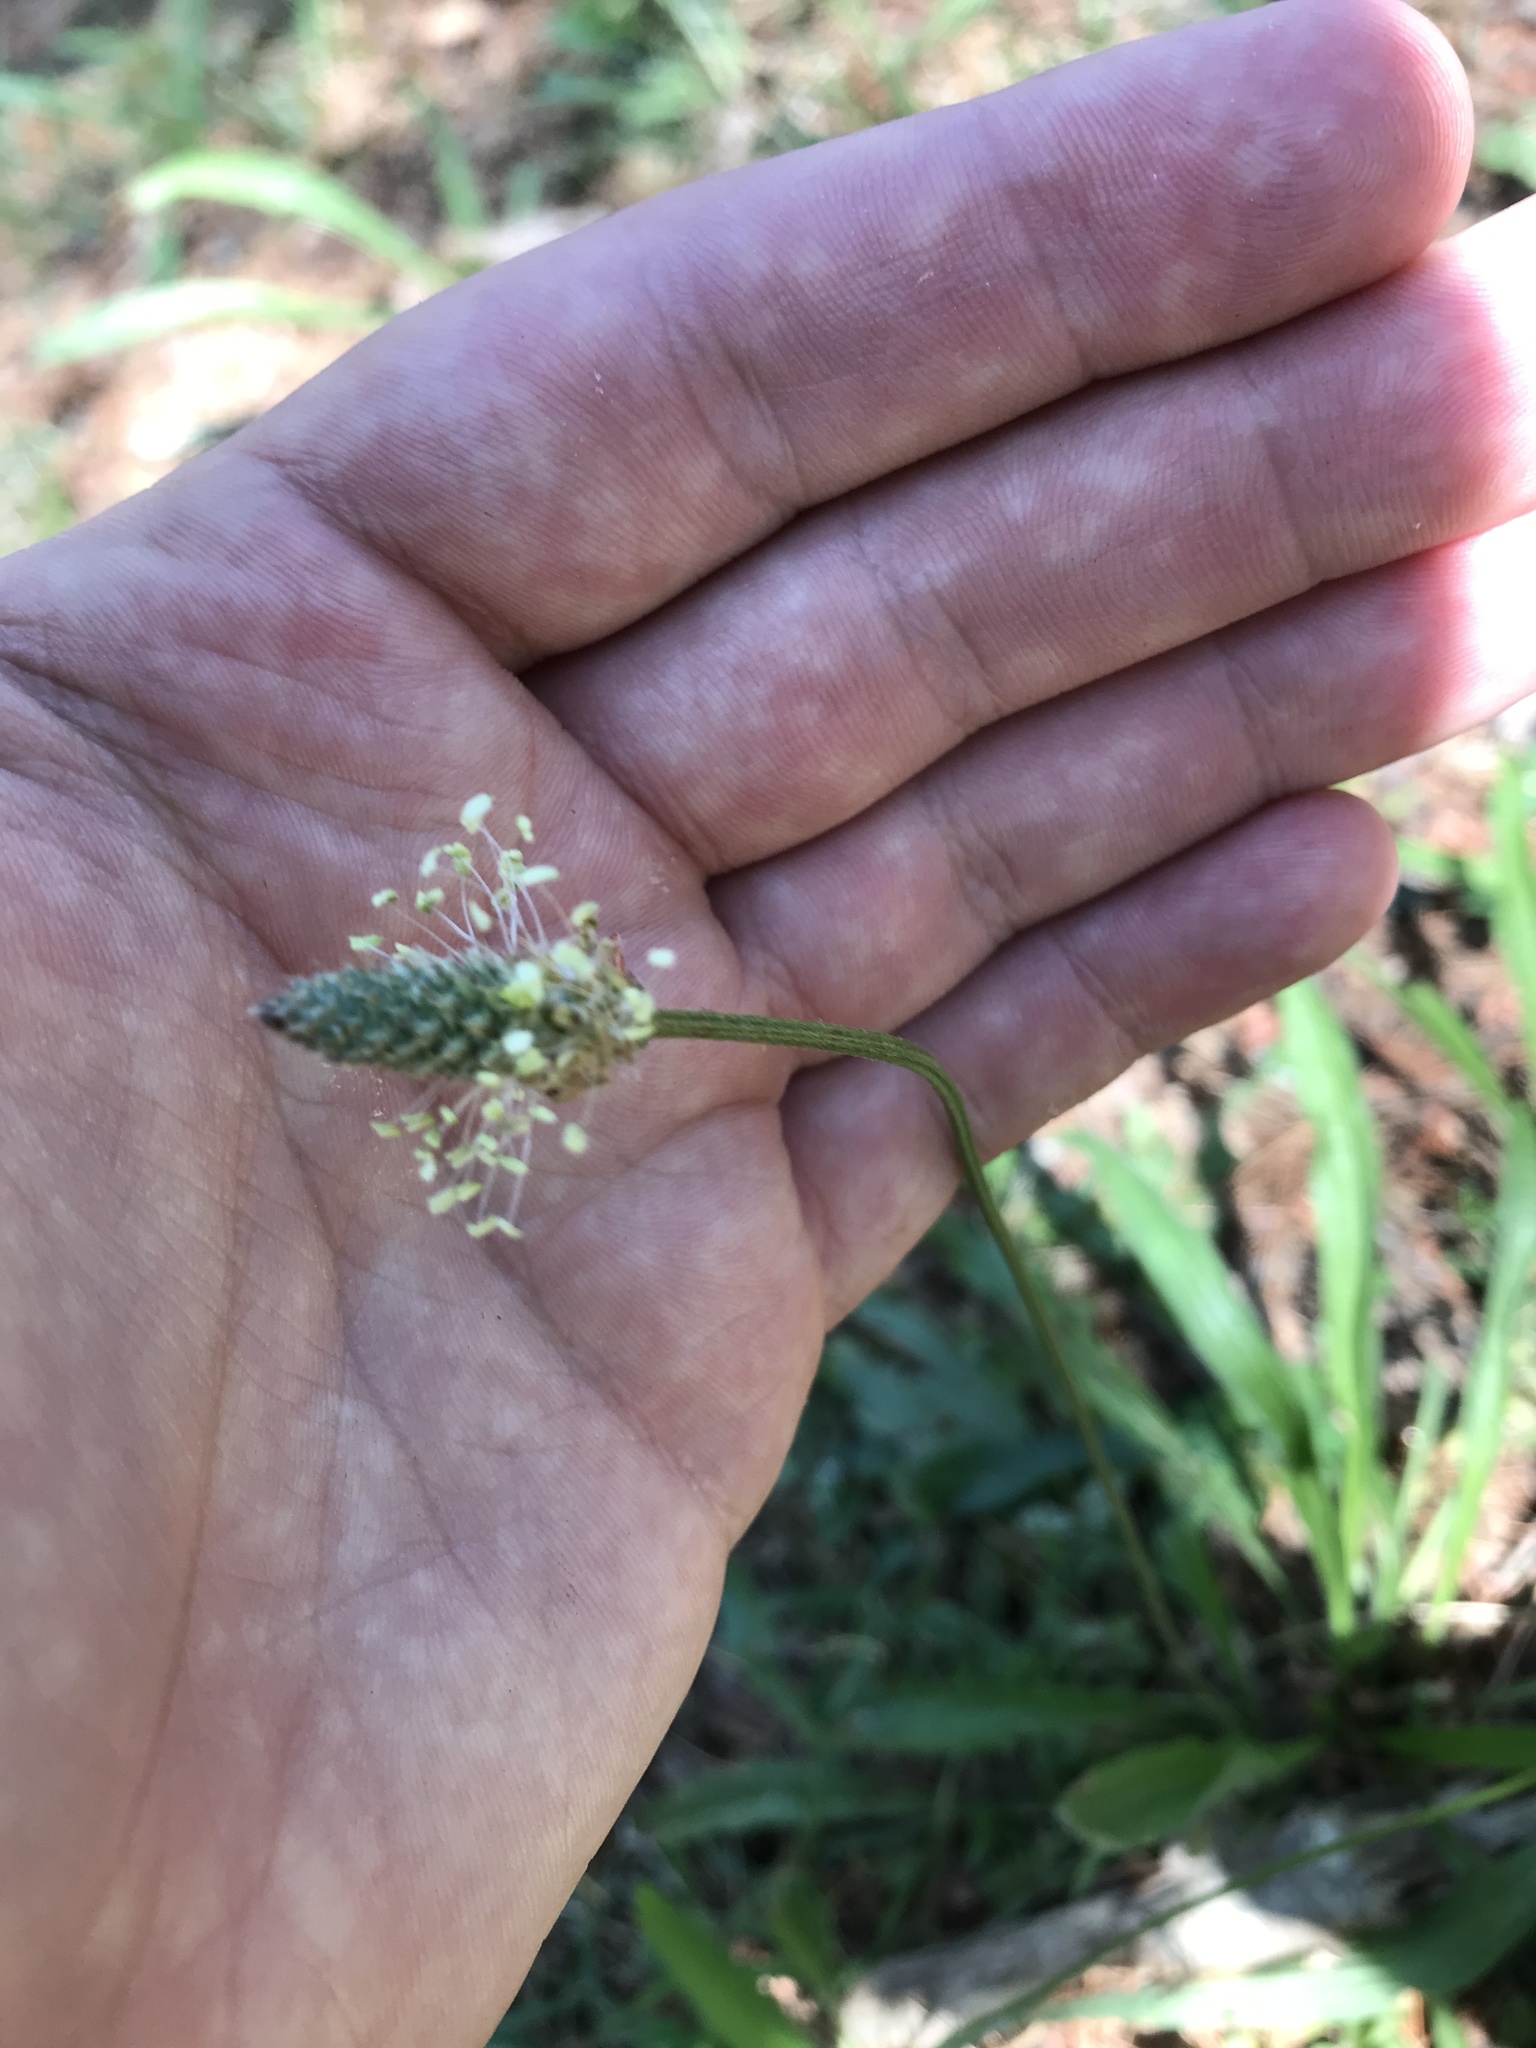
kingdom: Plantae
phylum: Tracheophyta
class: Magnoliopsida
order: Lamiales
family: Plantaginaceae
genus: Plantago
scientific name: Plantago lanceolata
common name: Ribwort plantain
